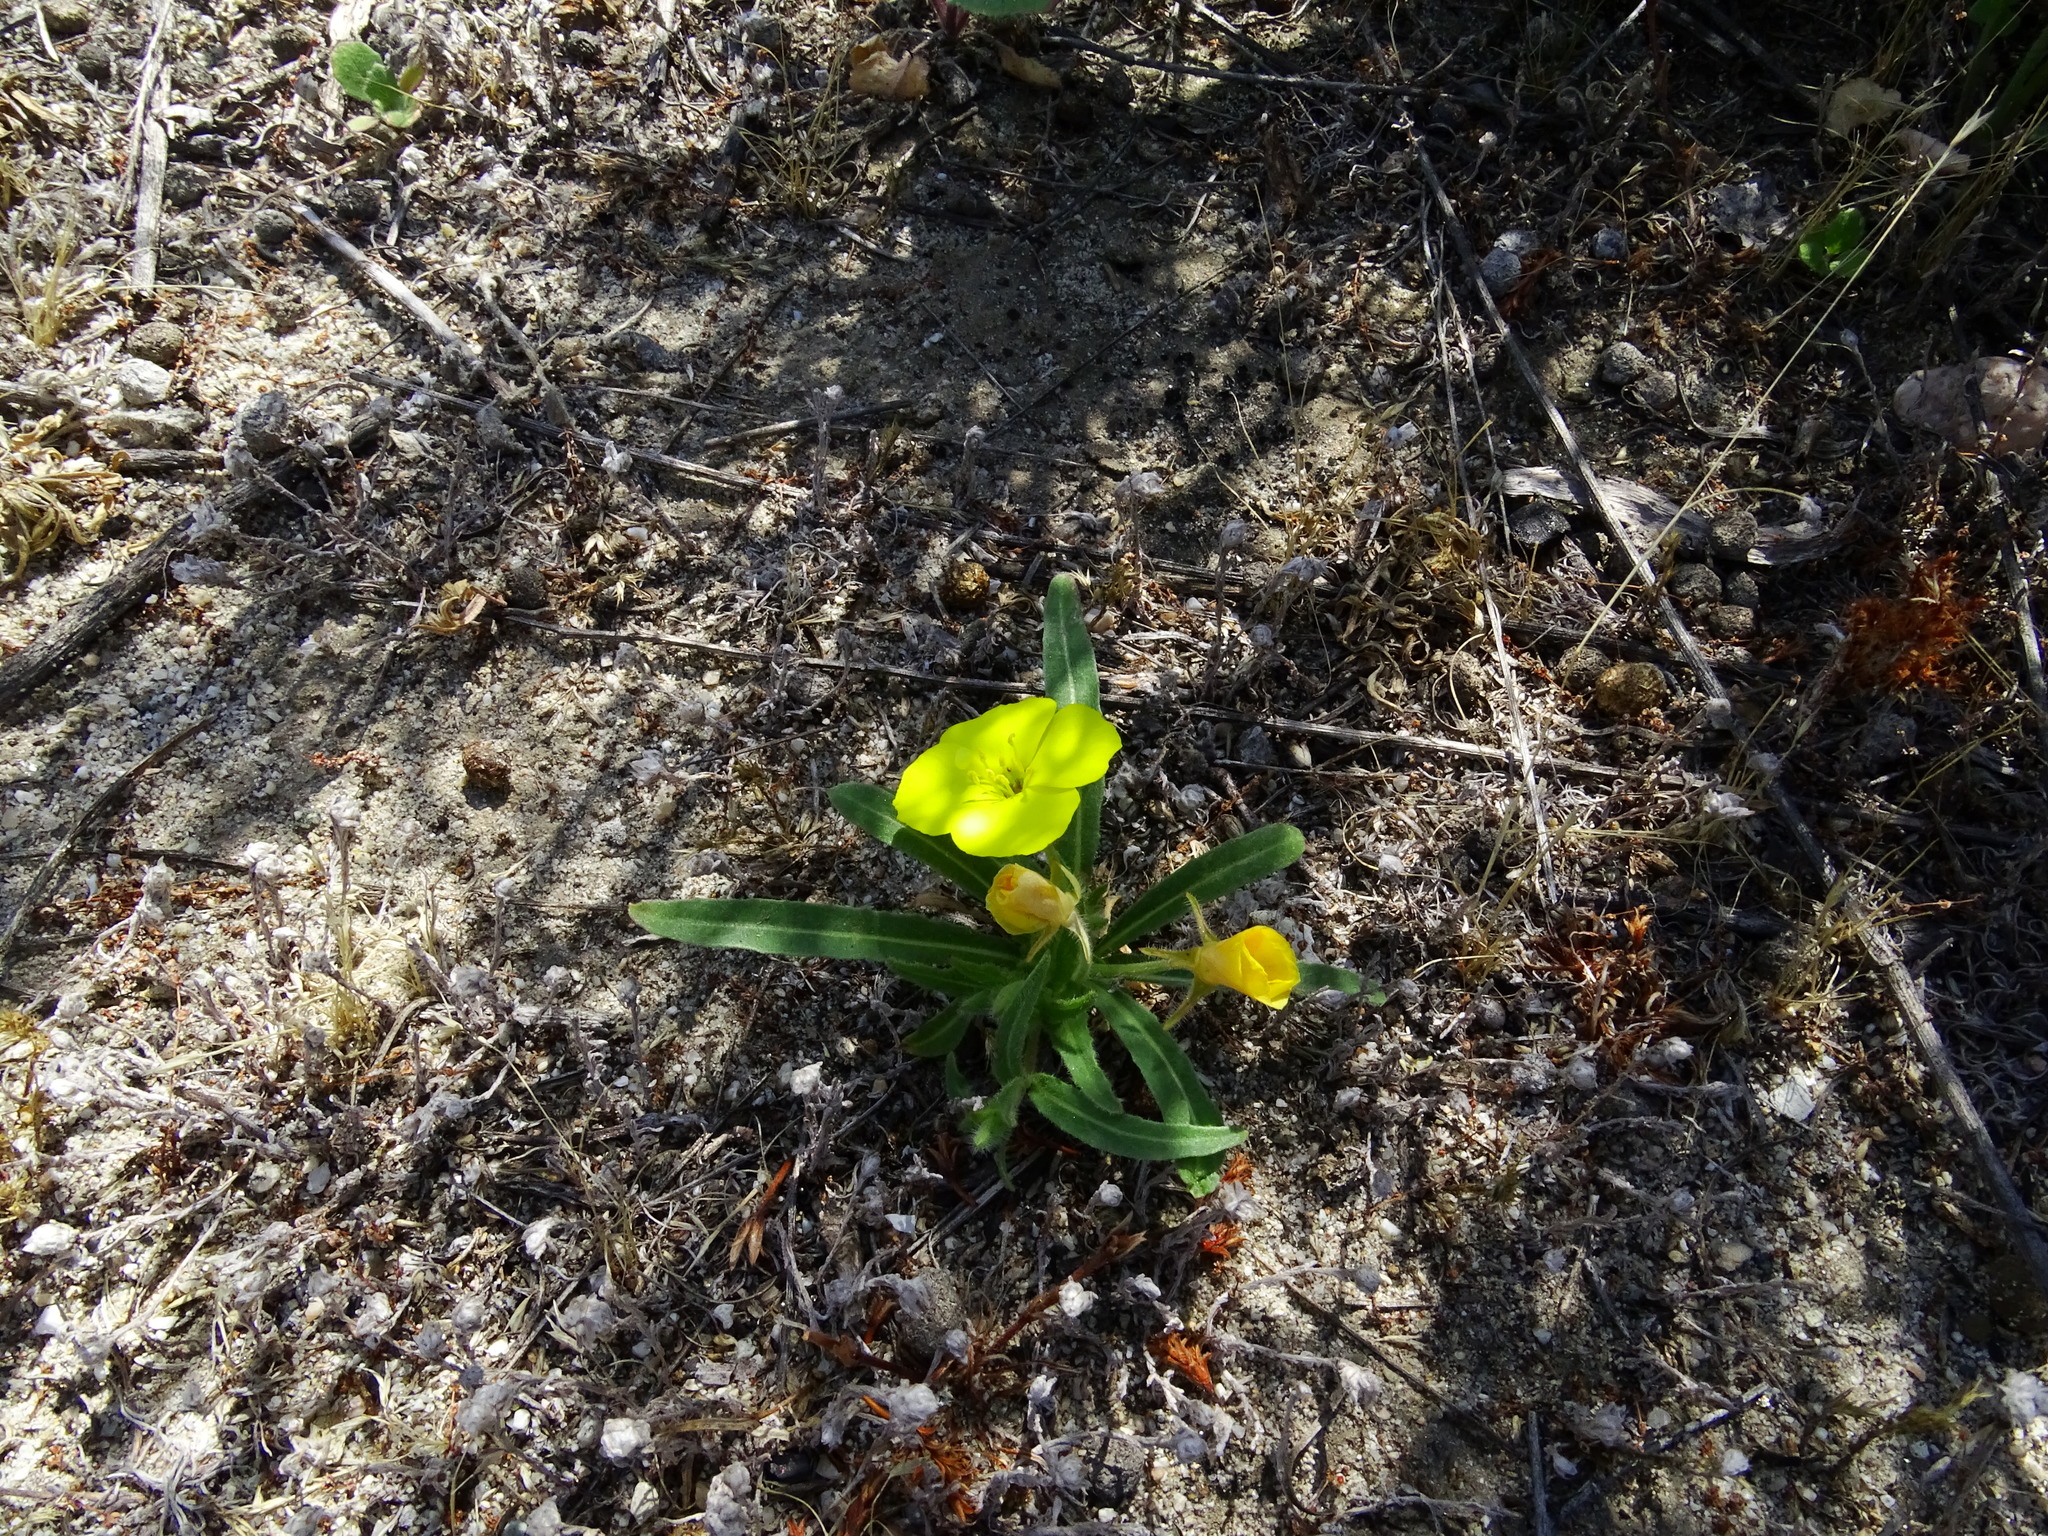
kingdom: Plantae
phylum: Tracheophyta
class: Magnoliopsida
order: Myrtales
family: Onagraceae
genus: Camissoniopsis
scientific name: Camissoniopsis bistorta
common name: Southern suncup
